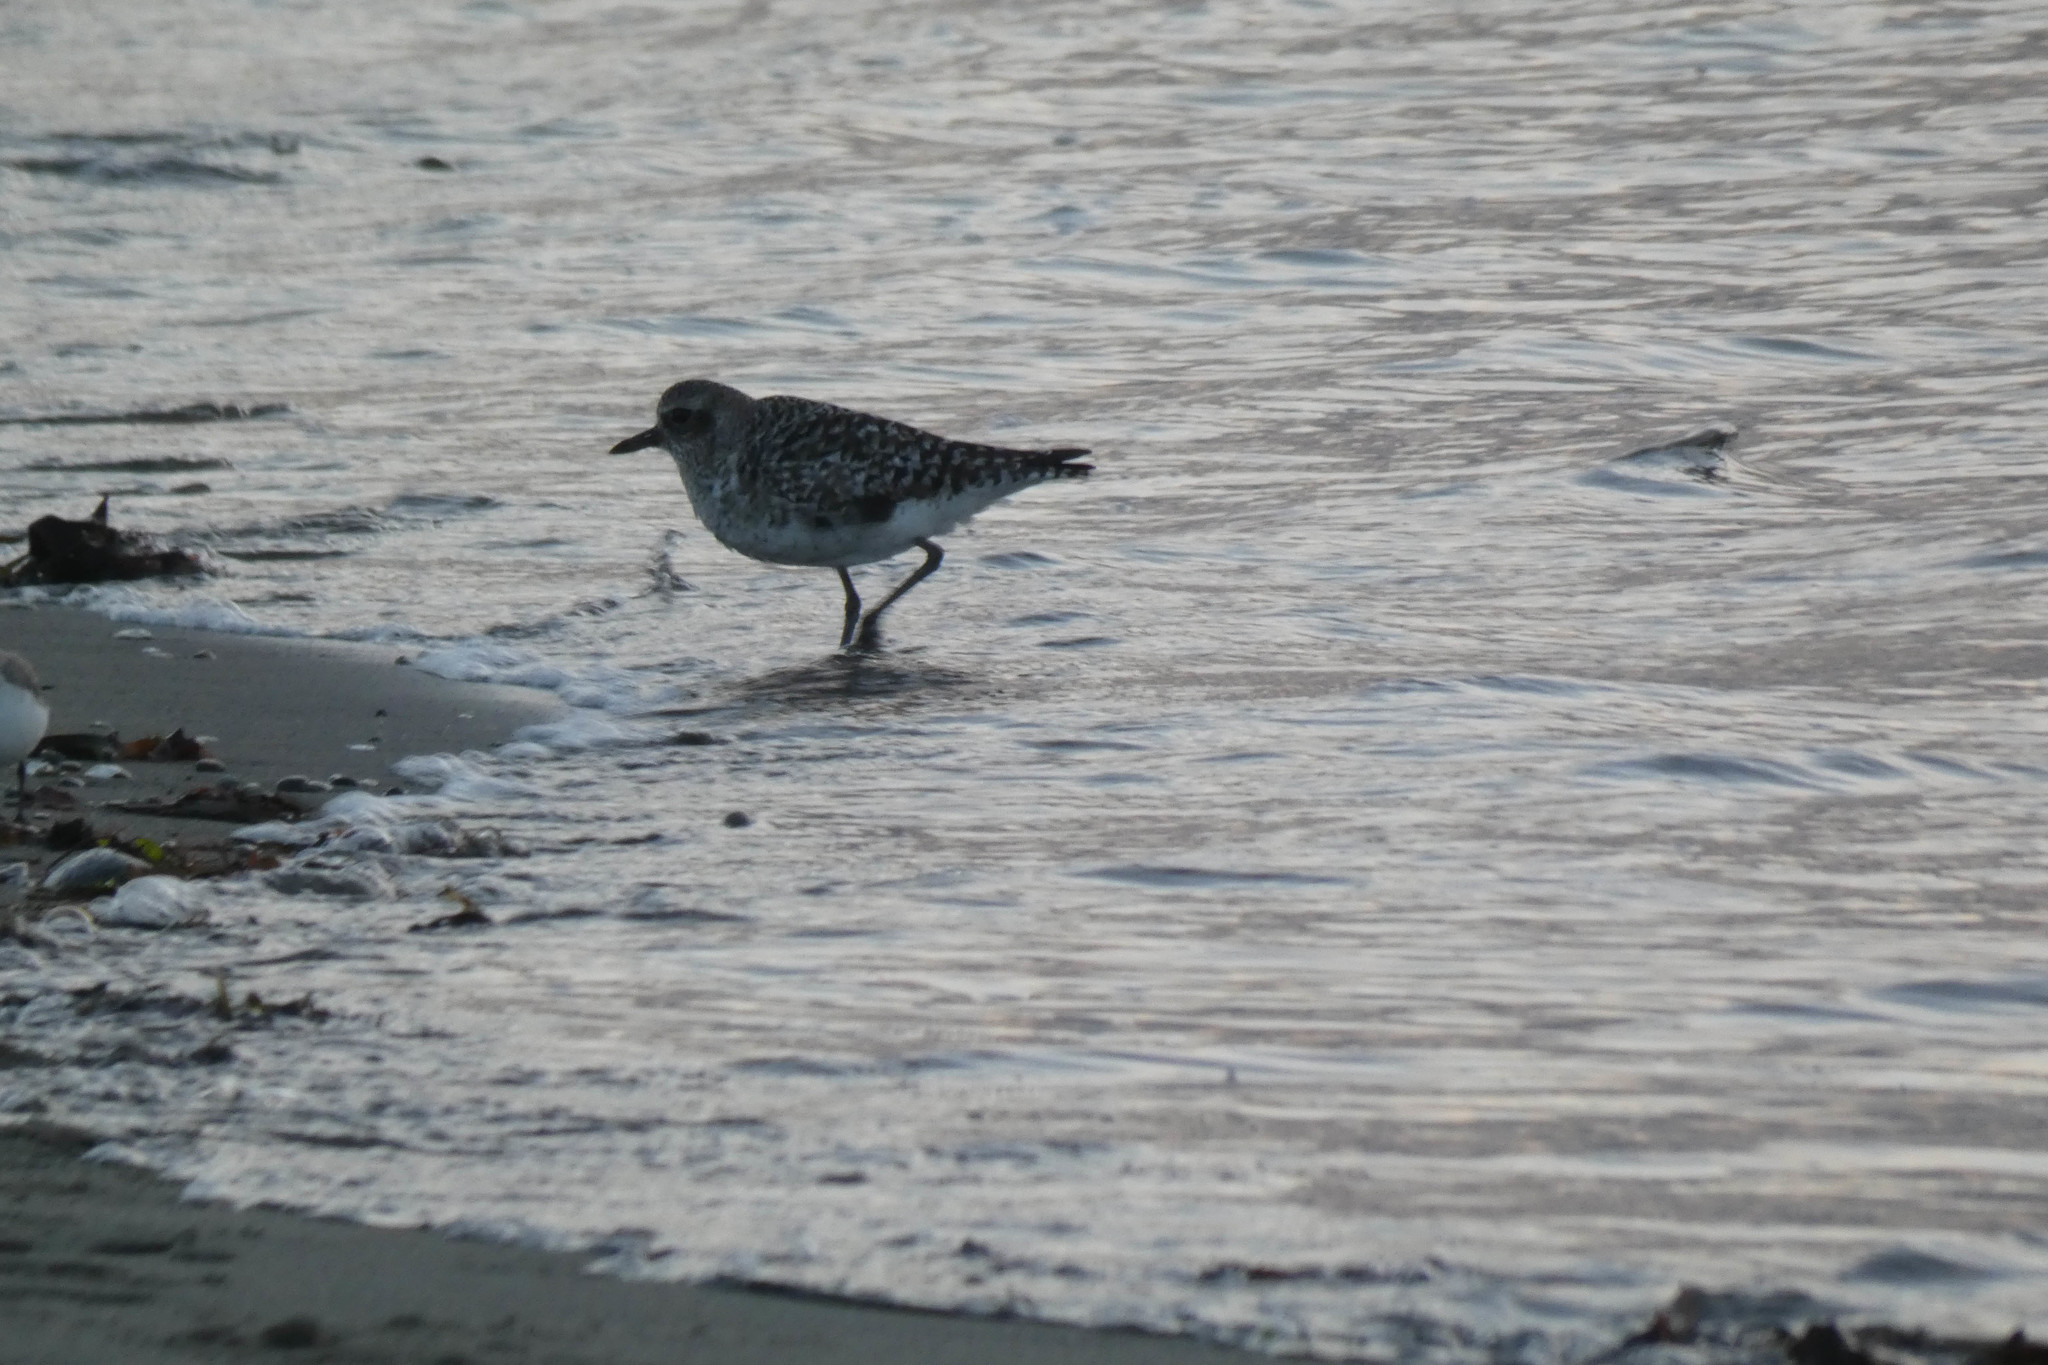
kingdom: Animalia
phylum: Chordata
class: Aves
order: Charadriiformes
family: Charadriidae
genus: Pluvialis
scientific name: Pluvialis squatarola
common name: Grey plover
